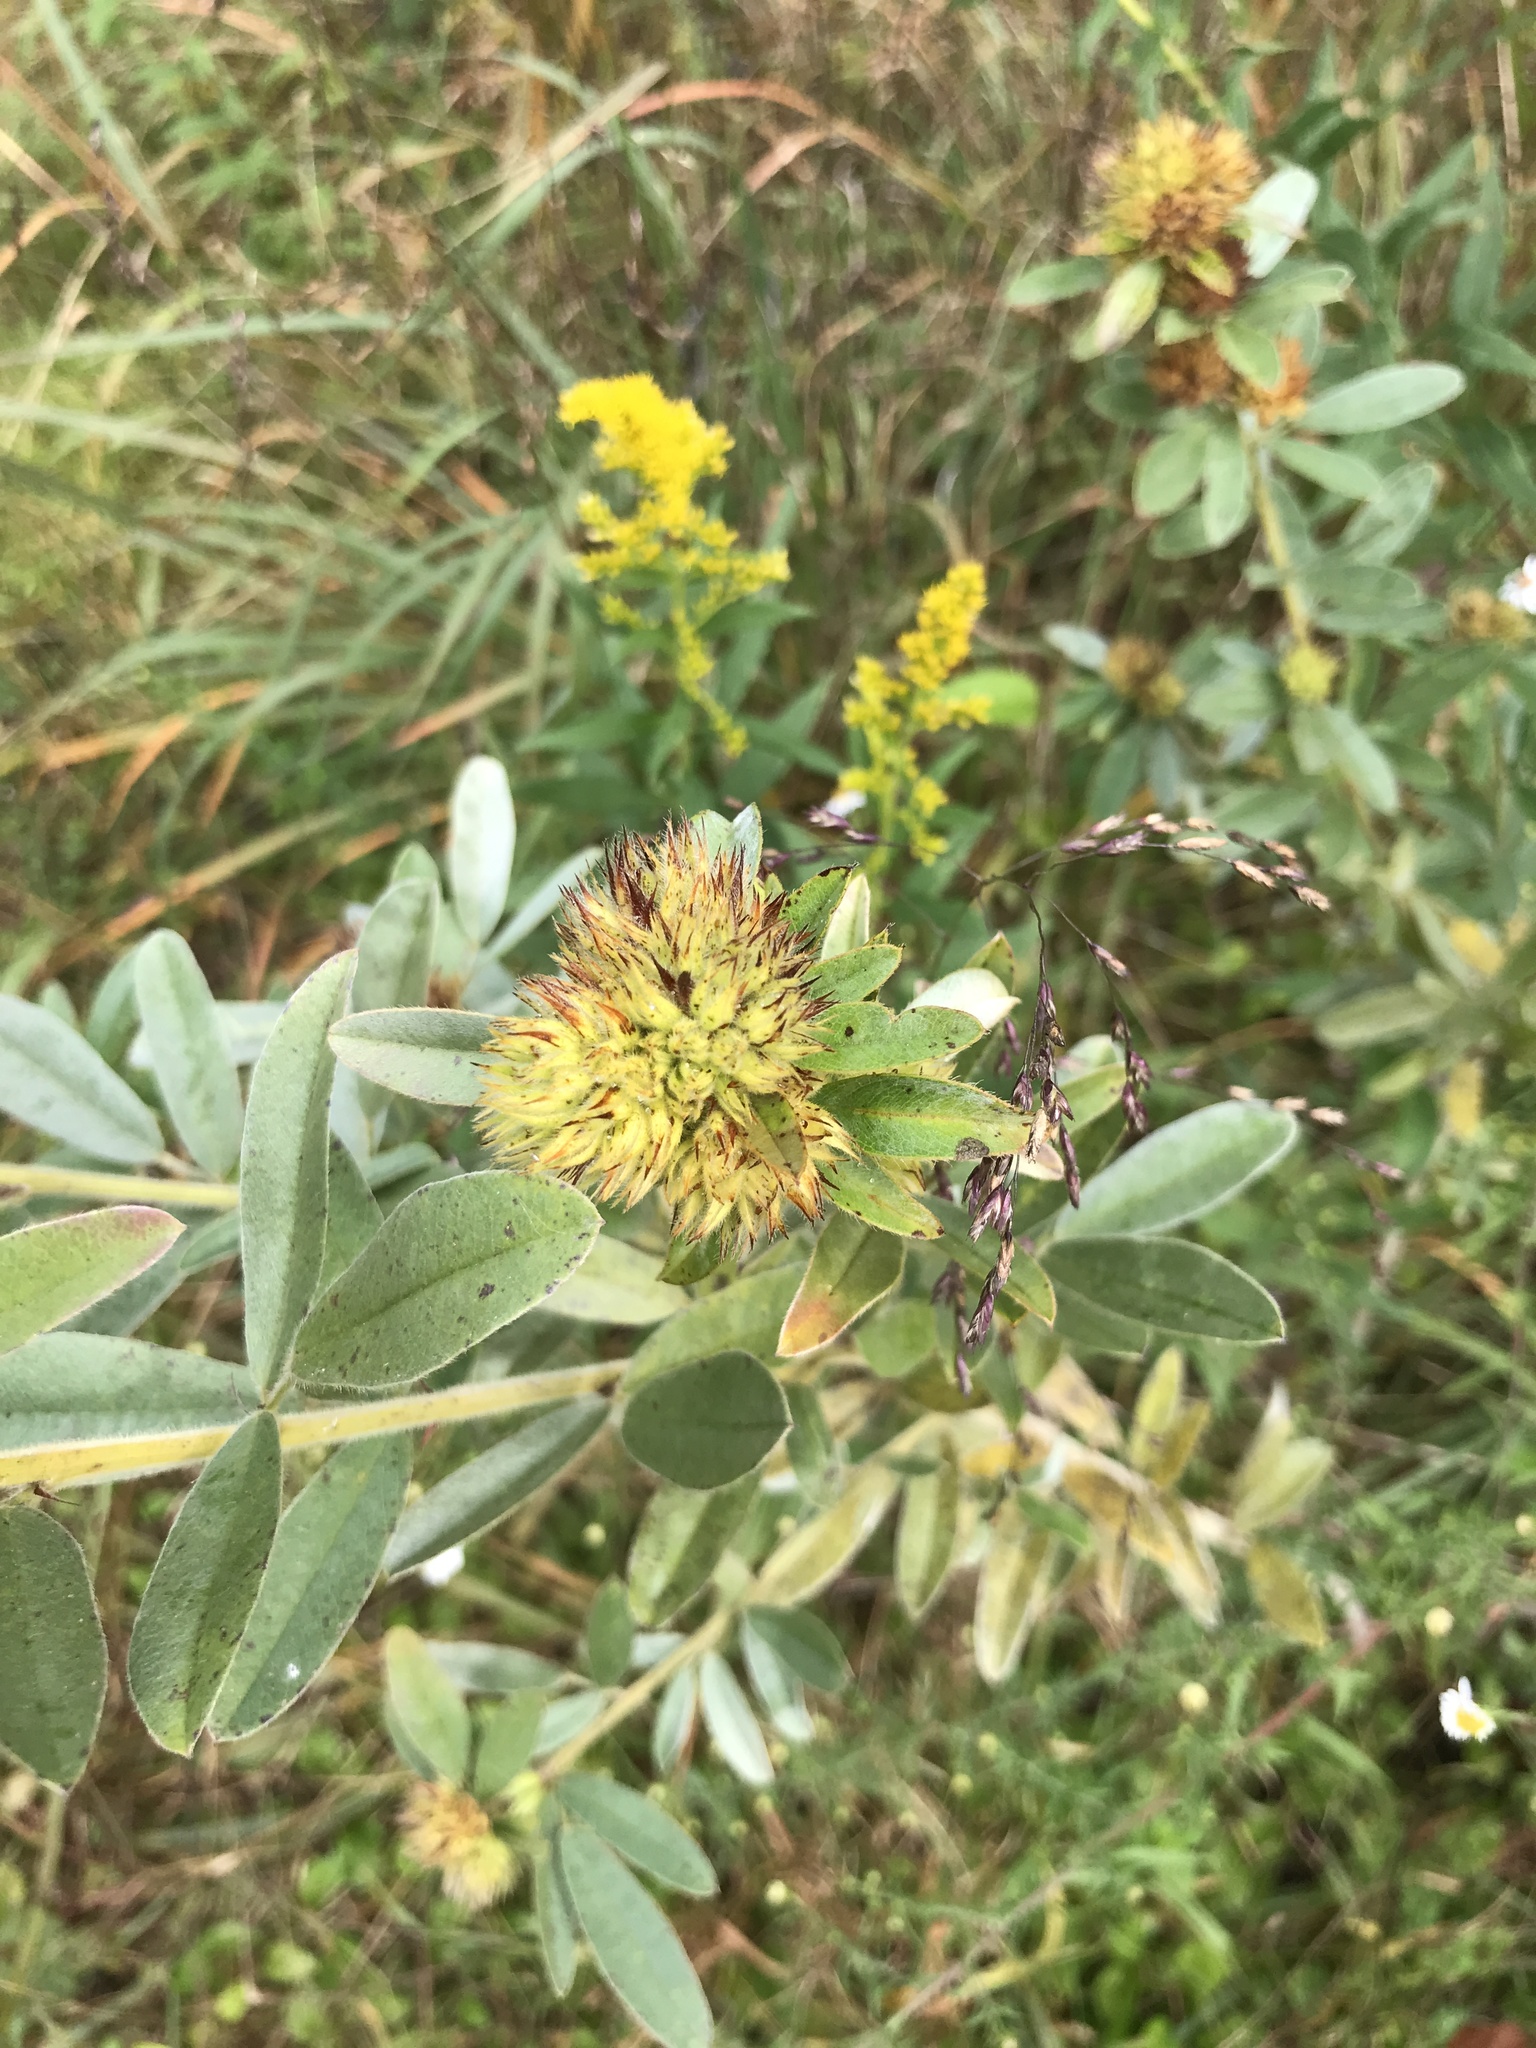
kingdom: Plantae
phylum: Tracheophyta
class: Magnoliopsida
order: Fabales
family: Fabaceae
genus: Lespedeza
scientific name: Lespedeza capitata
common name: Dusty clover
